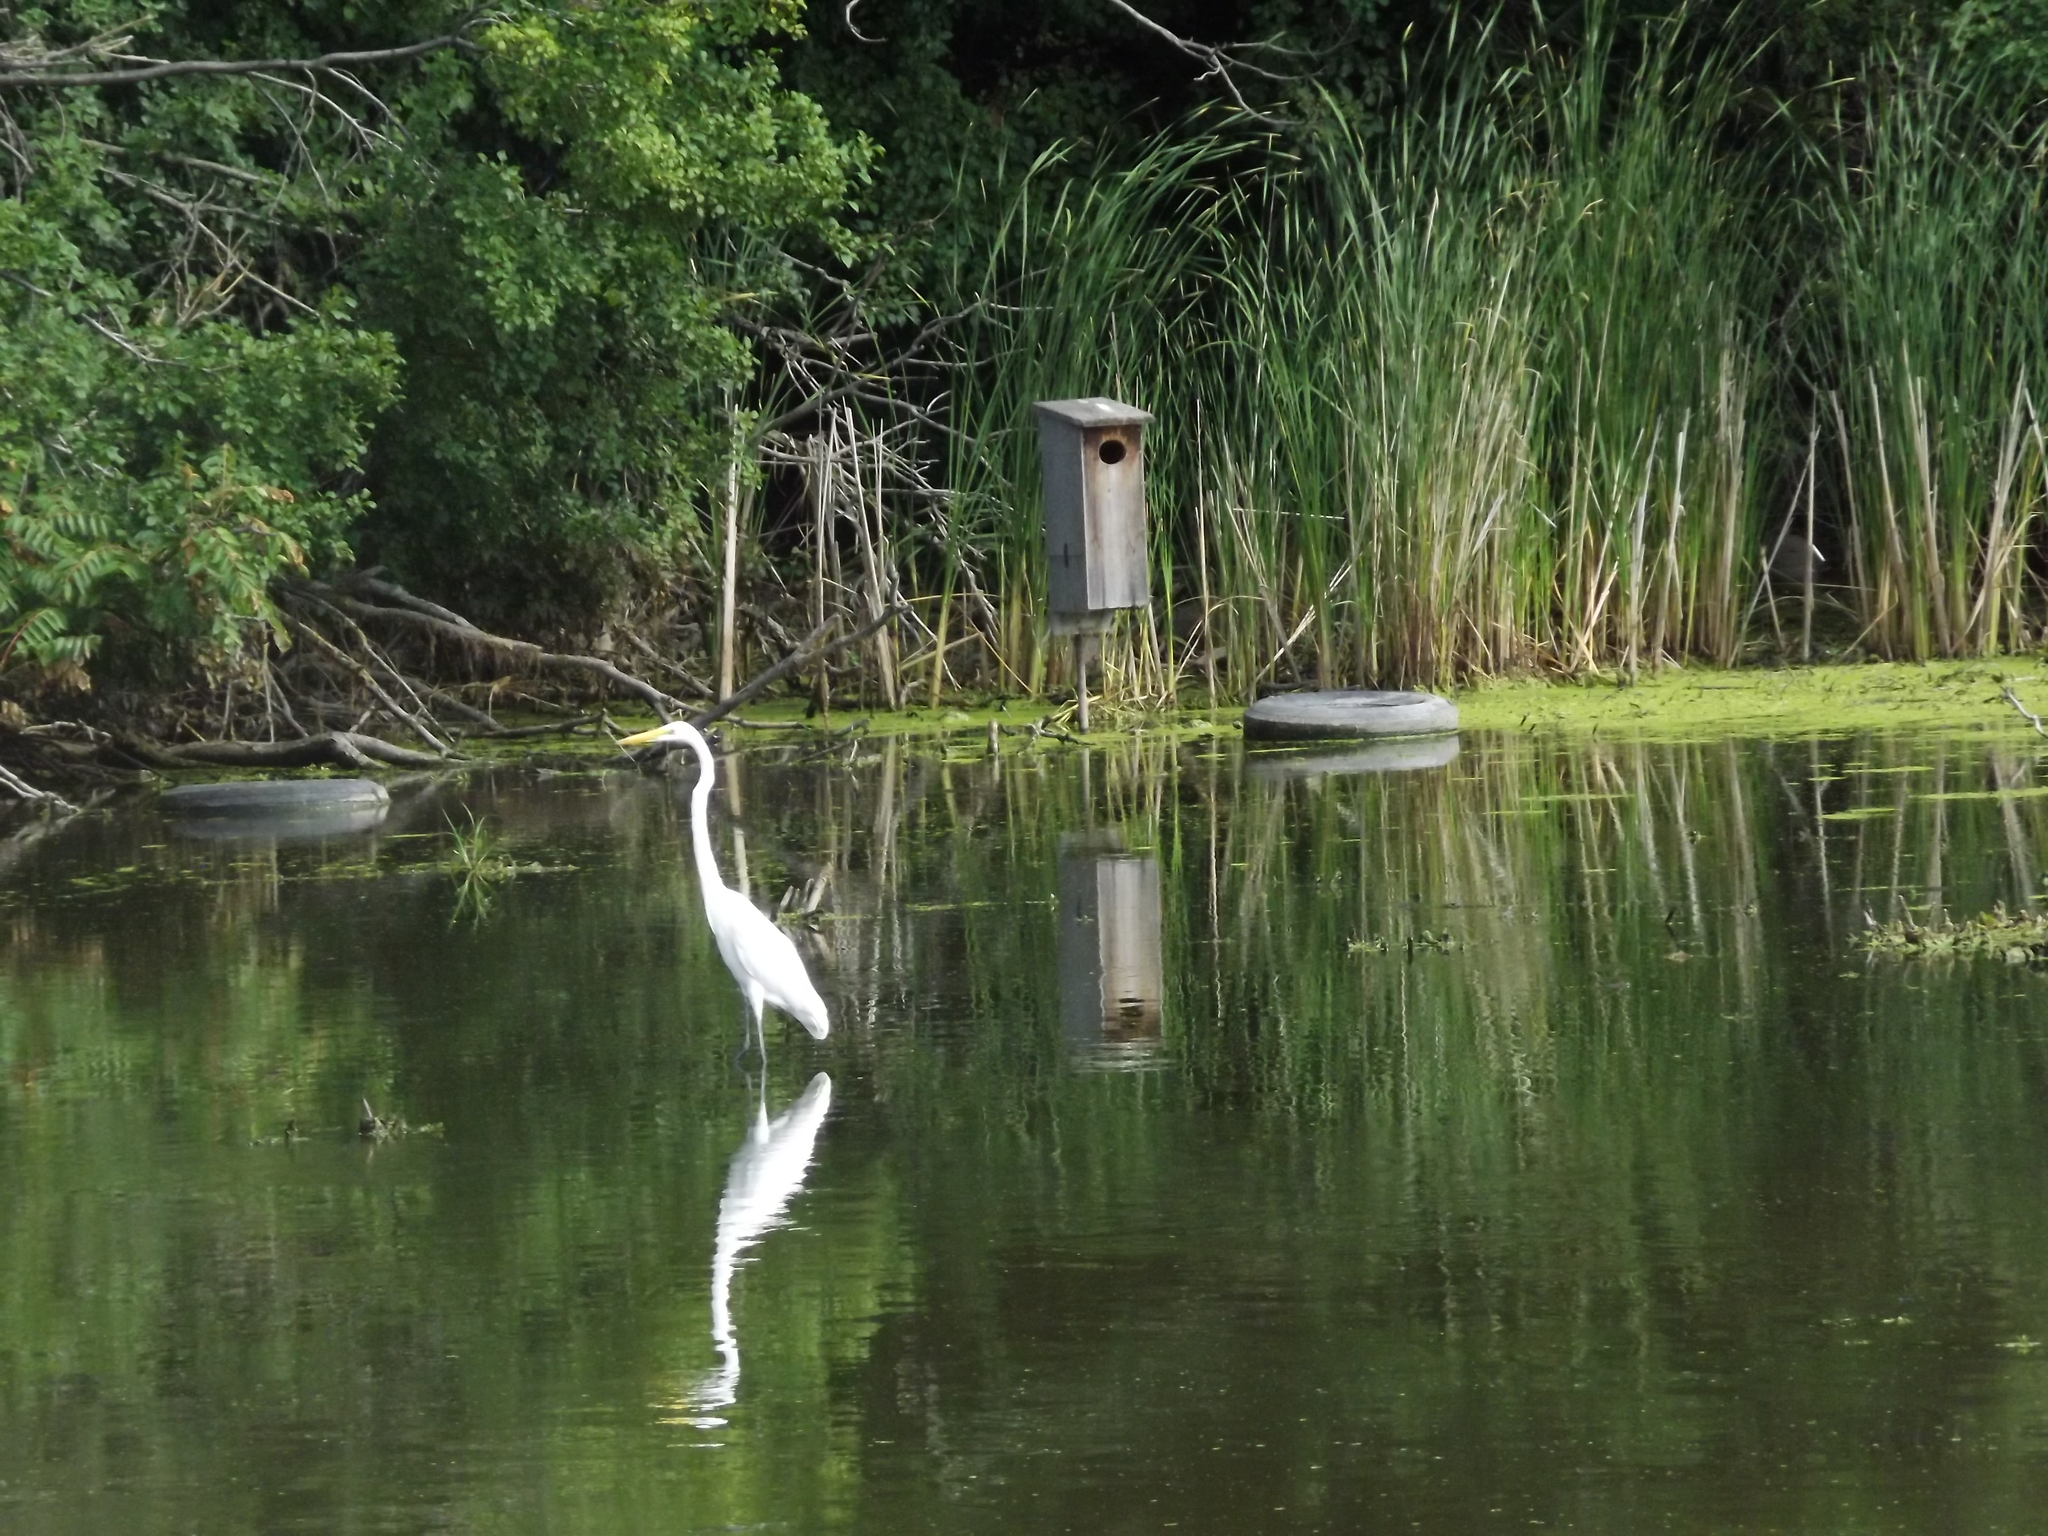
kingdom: Animalia
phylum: Chordata
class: Aves
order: Pelecaniformes
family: Ardeidae
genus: Ardea
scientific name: Ardea alba
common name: Great egret
